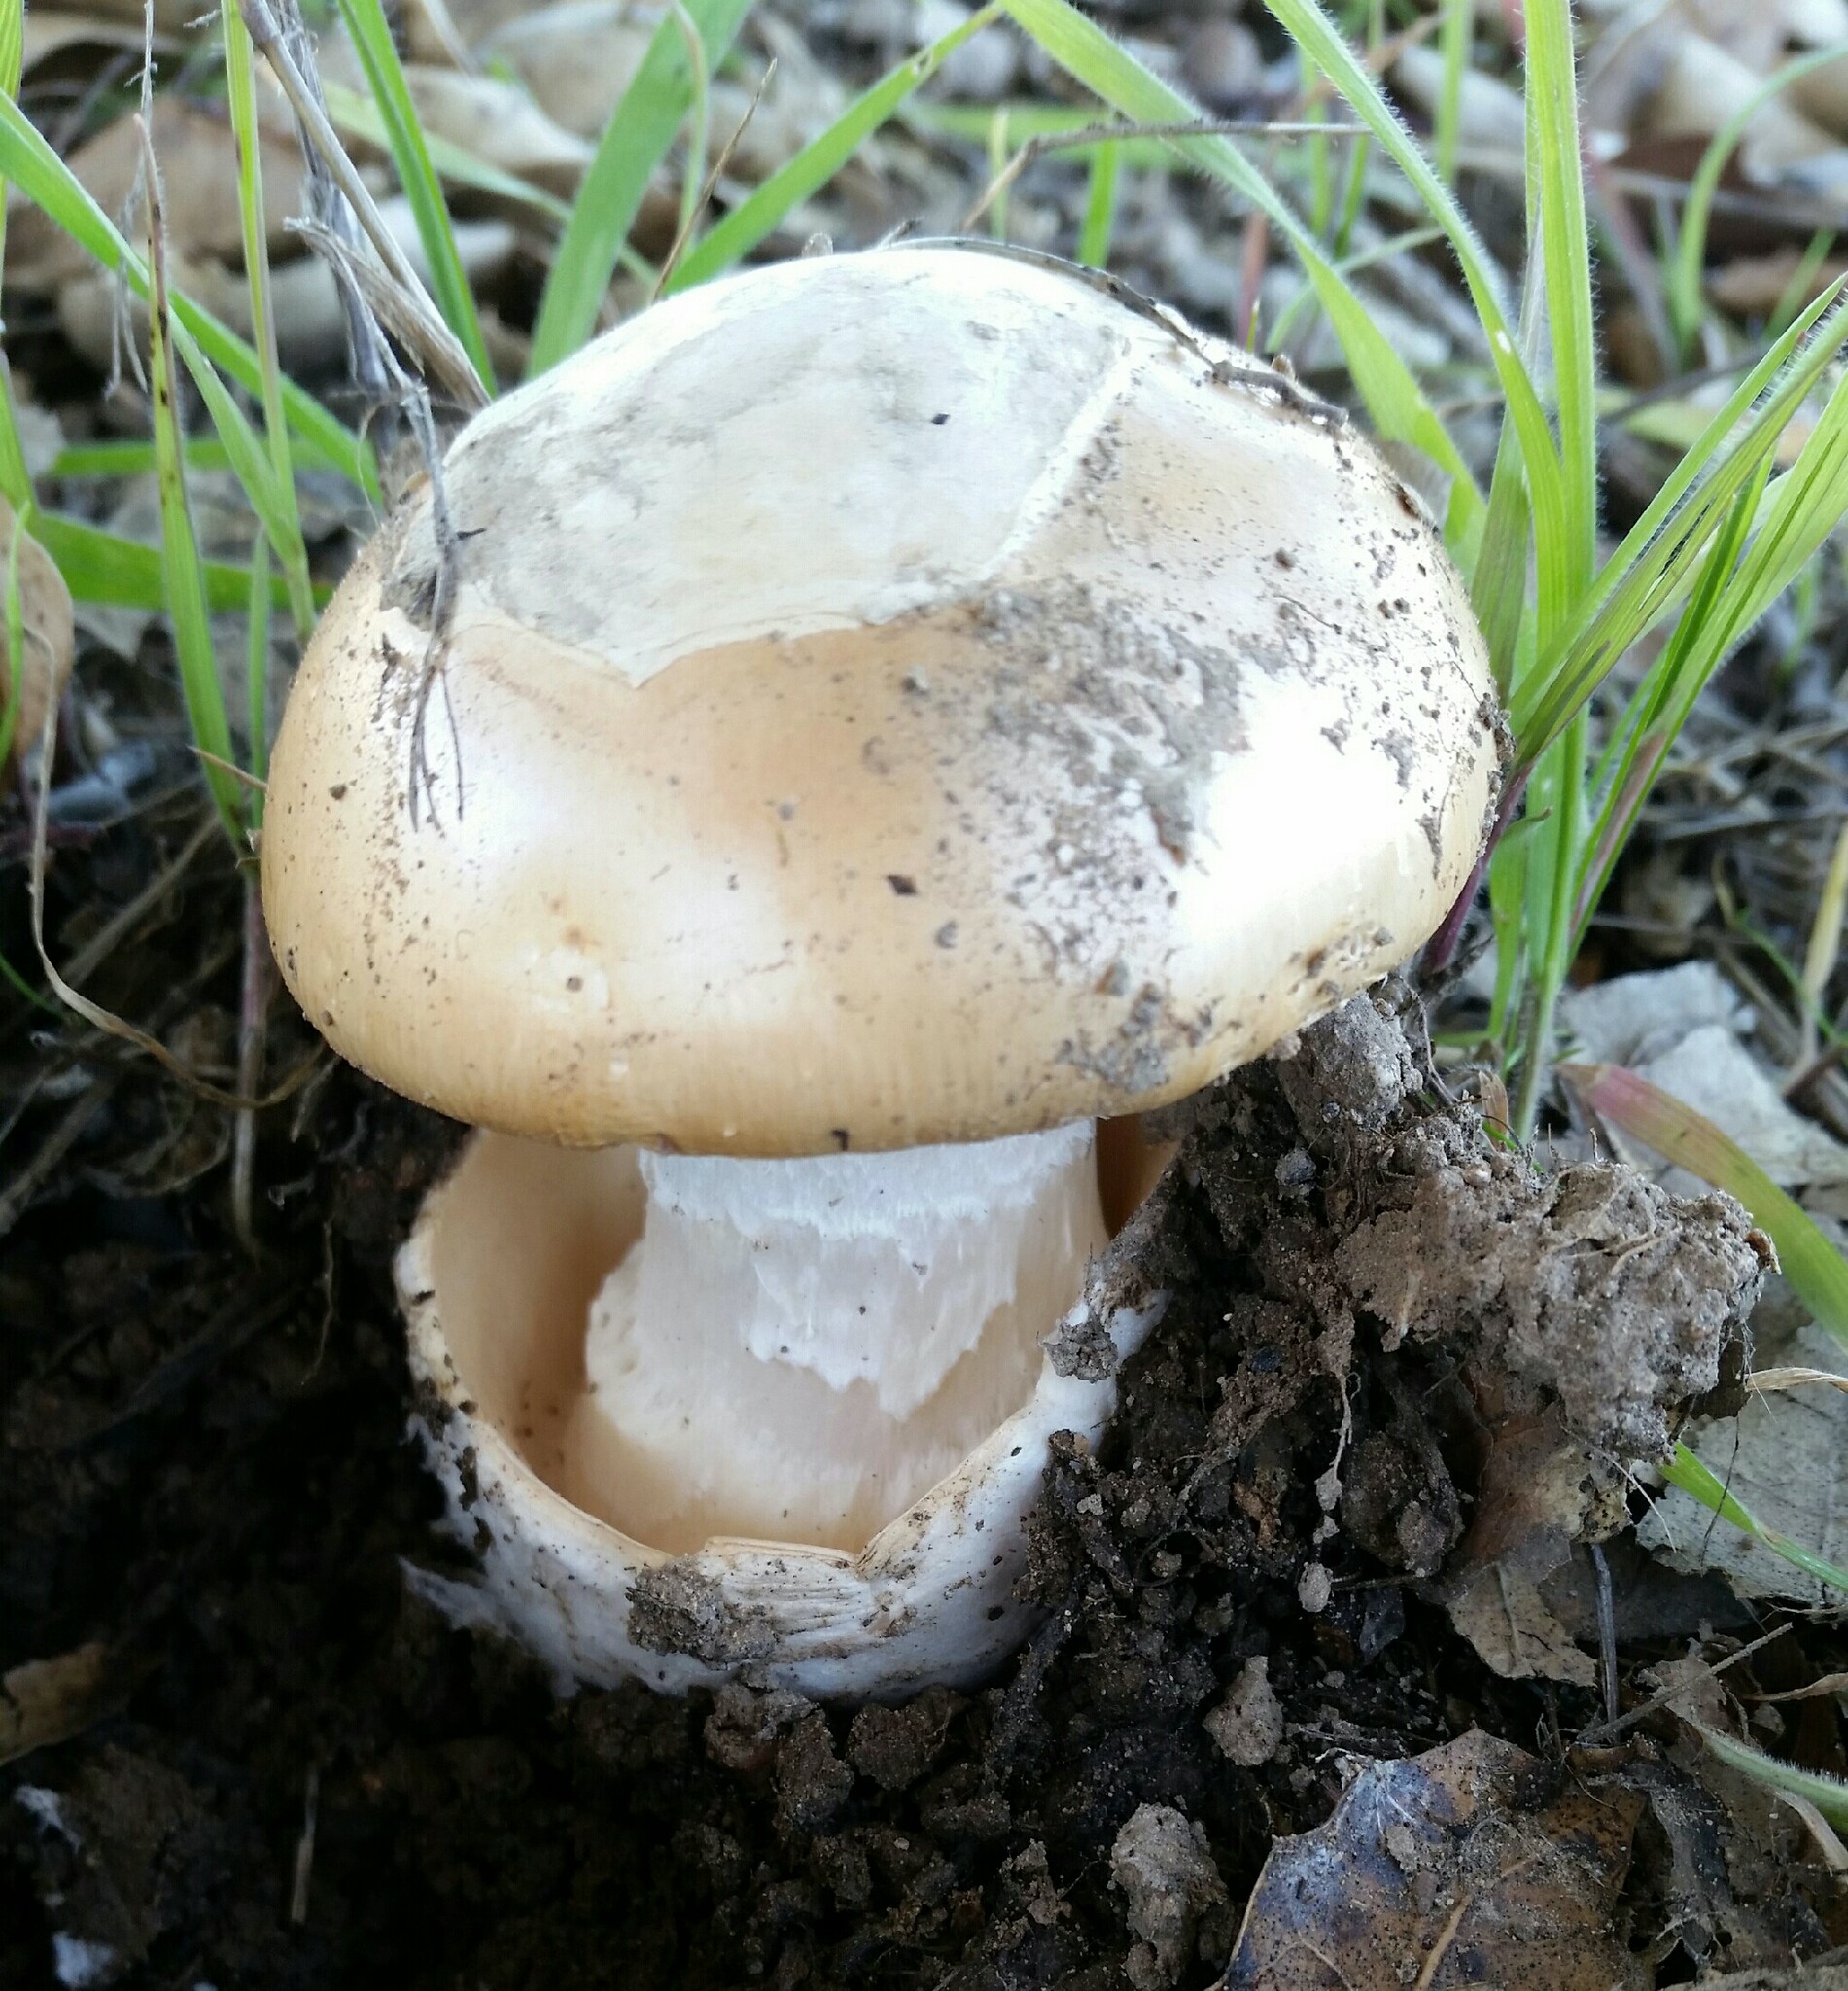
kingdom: Fungi
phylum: Basidiomycota
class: Agaricomycetes
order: Agaricales
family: Amanitaceae
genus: Amanita
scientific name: Amanita velosa
